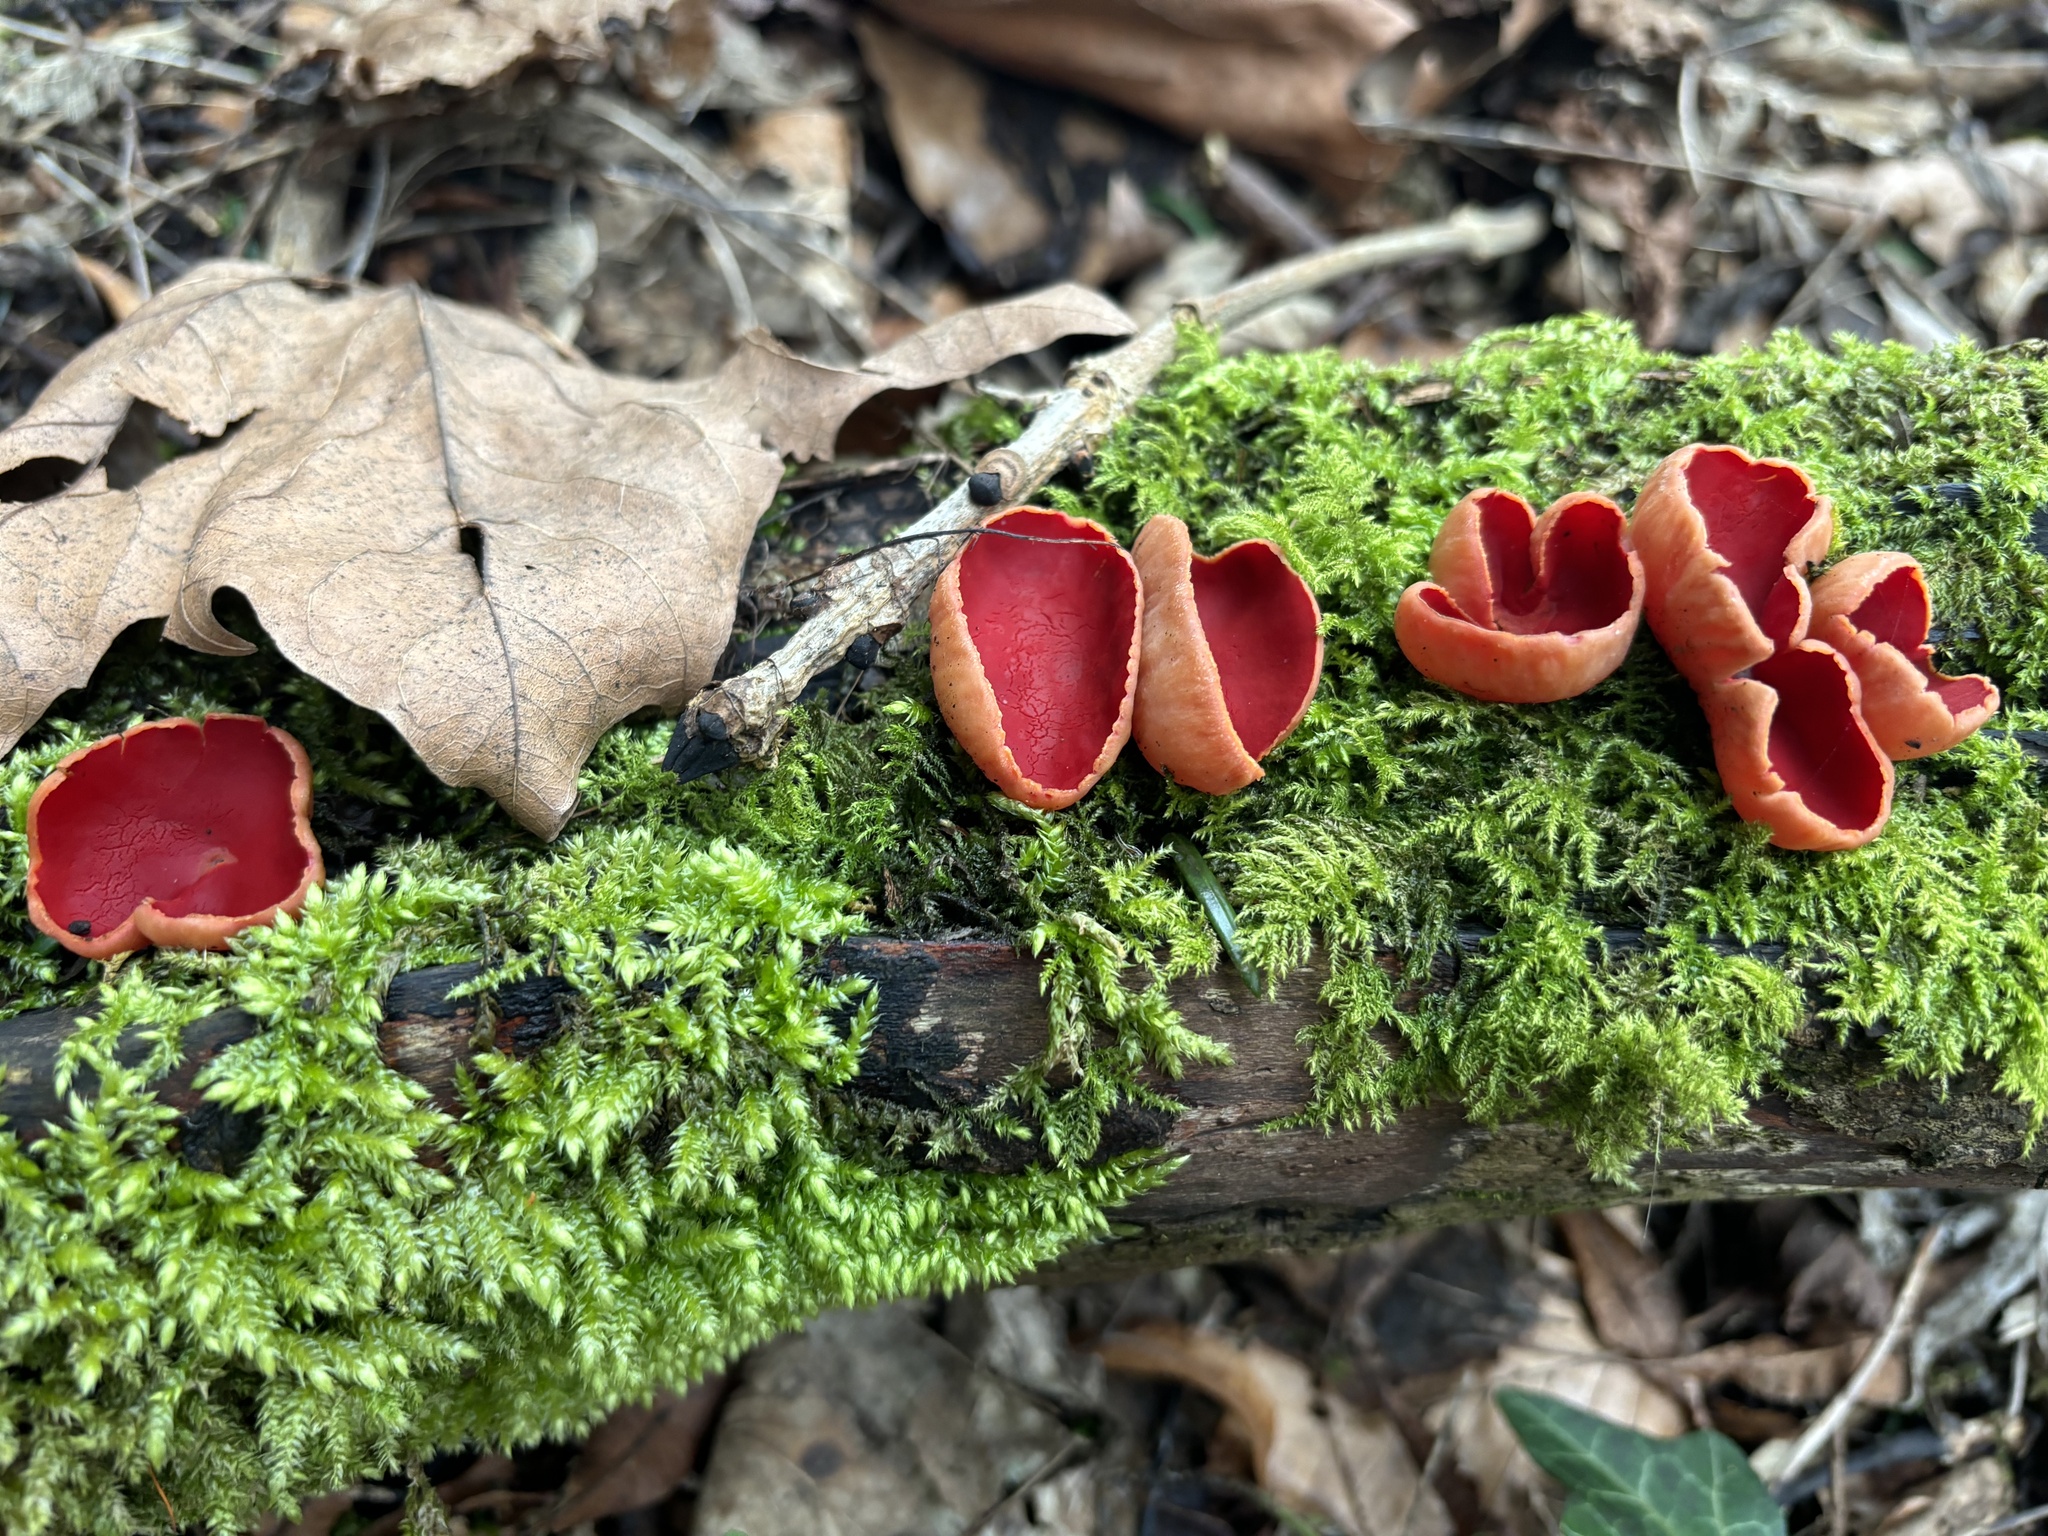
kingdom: Fungi
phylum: Ascomycota
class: Pezizomycetes
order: Pezizales
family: Sarcoscyphaceae
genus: Sarcoscypha
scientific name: Sarcoscypha
